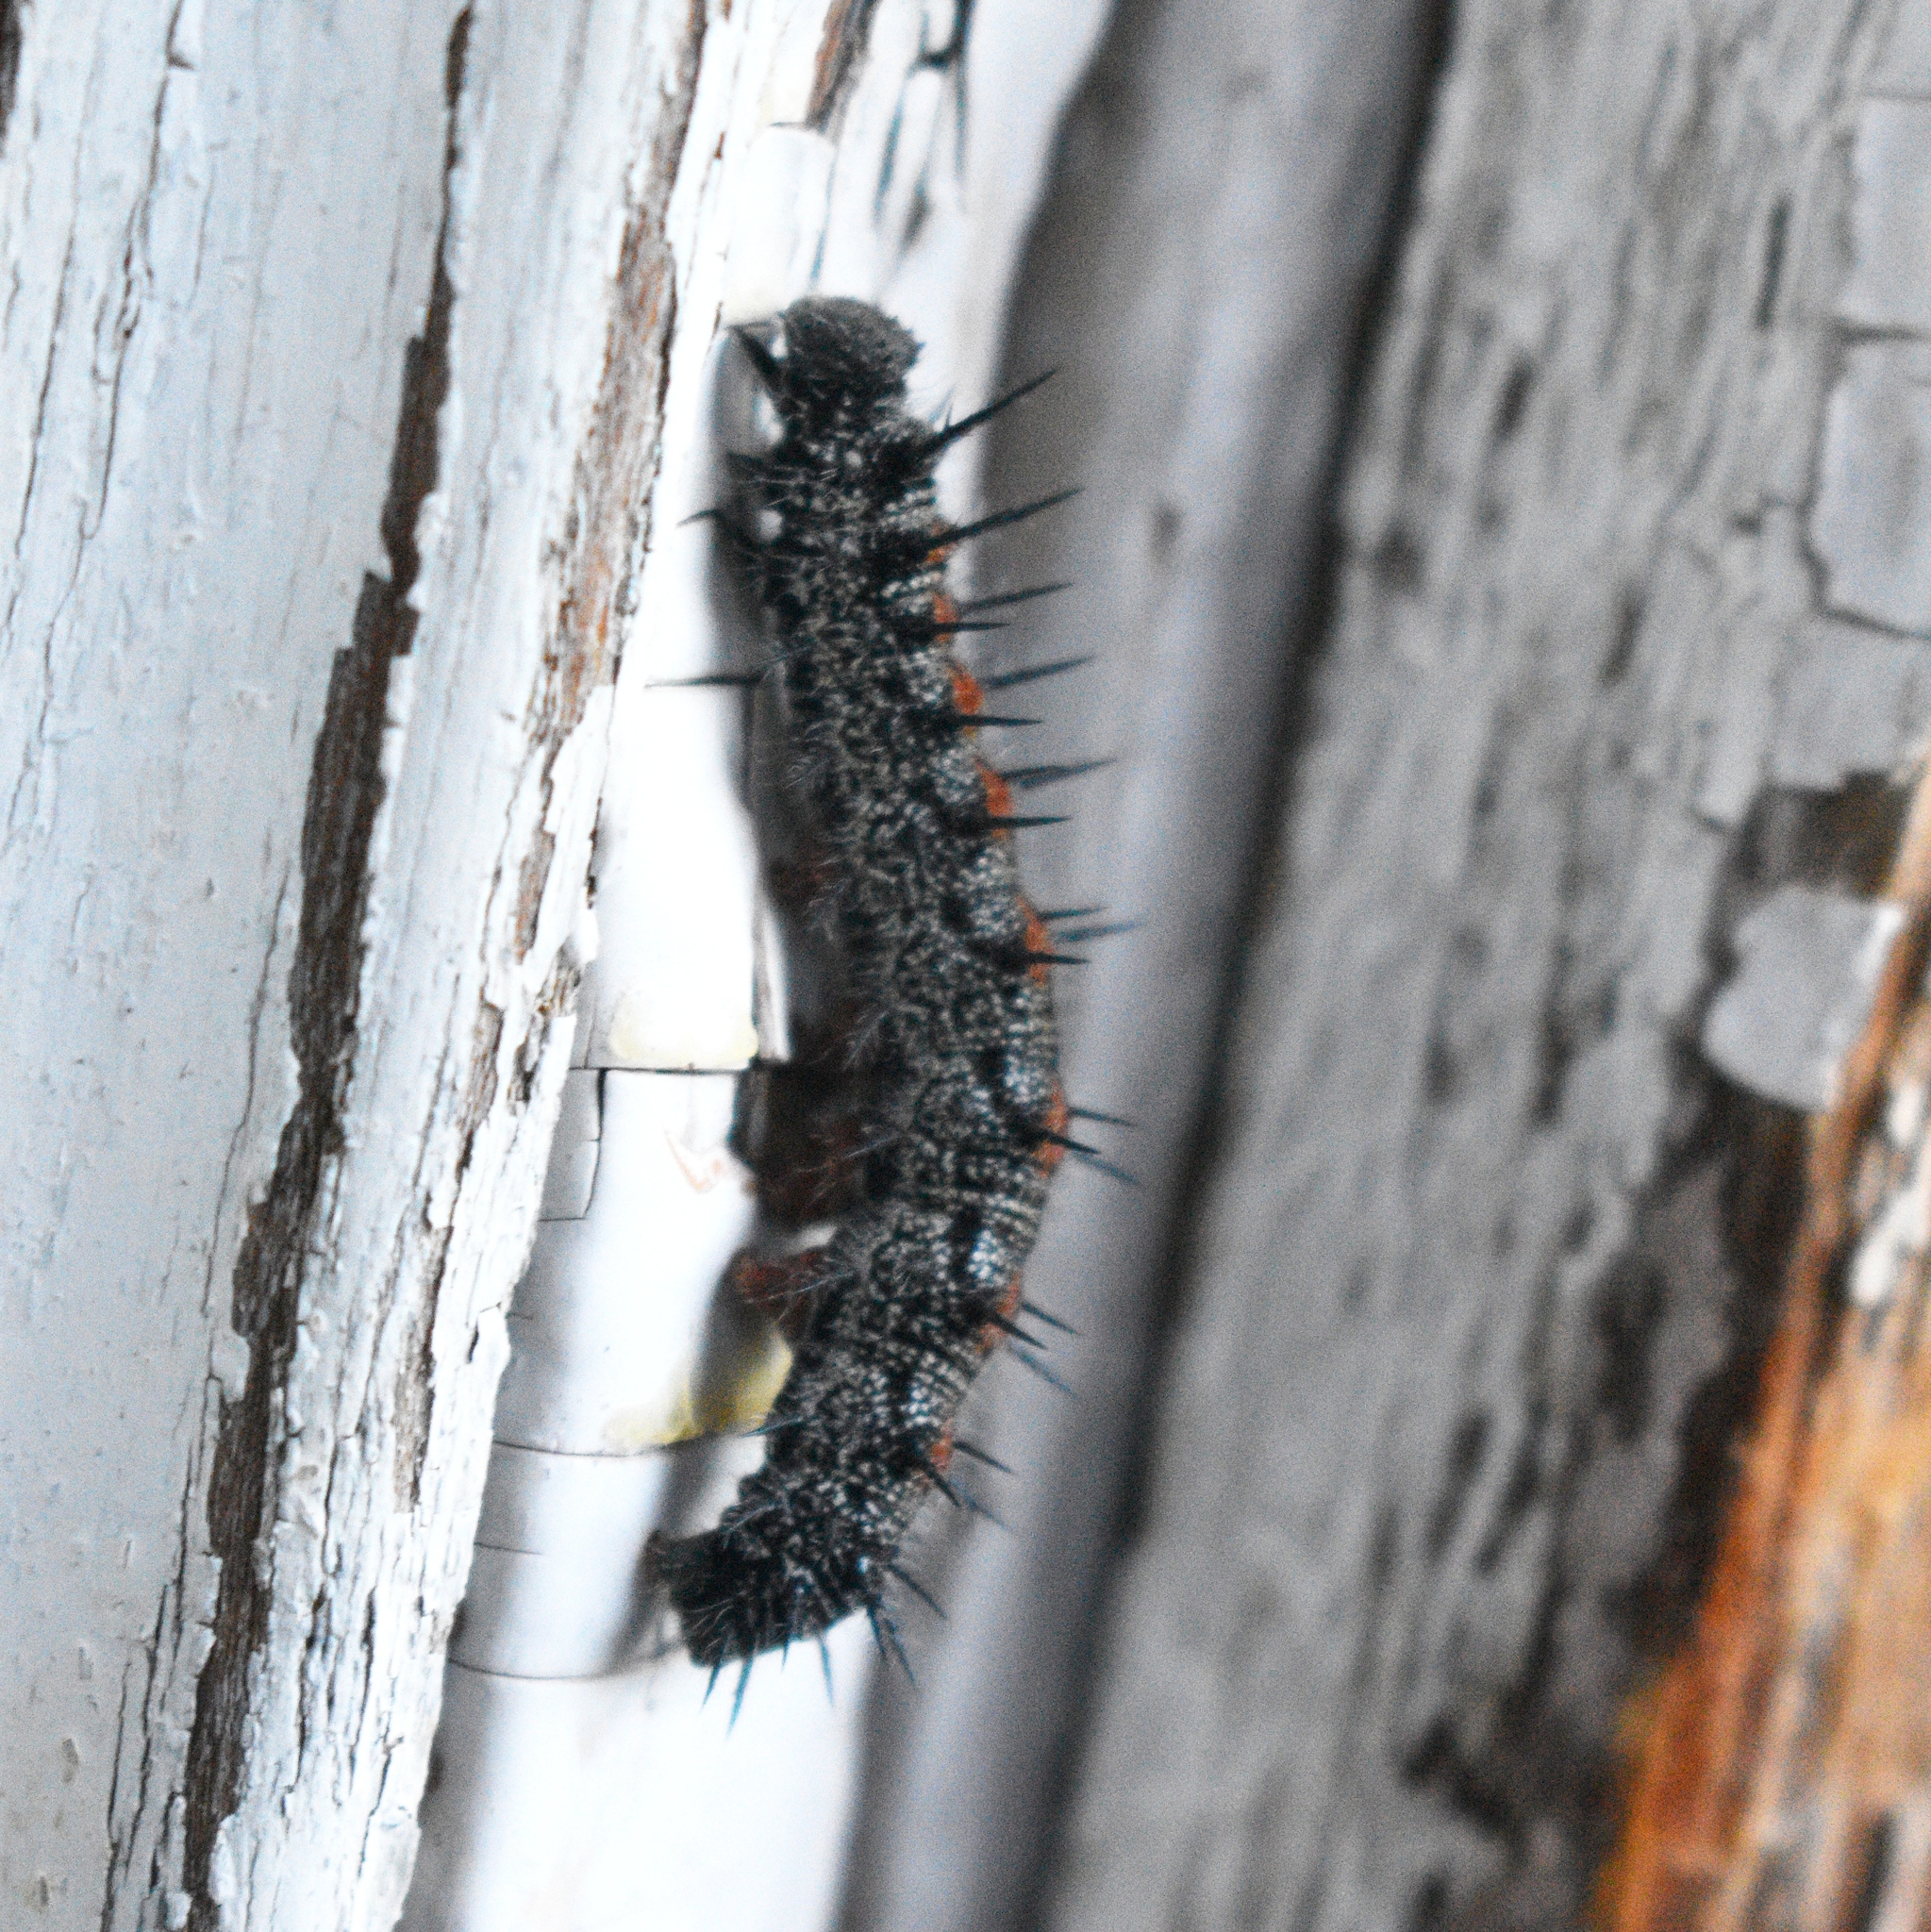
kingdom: Animalia
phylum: Arthropoda
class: Insecta
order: Lepidoptera
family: Nymphalidae
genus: Nymphalis
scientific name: Nymphalis antiopa
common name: Camberwell beauty
